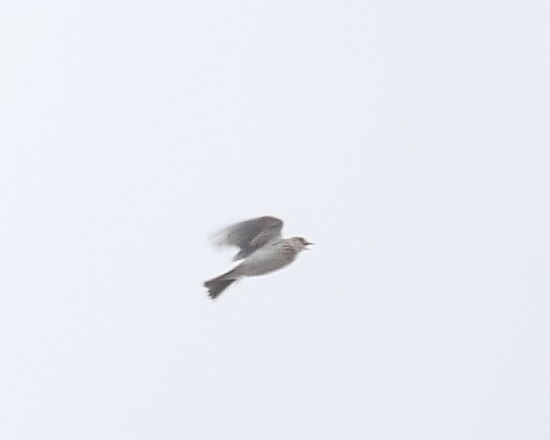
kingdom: Animalia
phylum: Chordata
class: Aves
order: Passeriformes
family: Alaudidae
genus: Alauda
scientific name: Alauda arvensis
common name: Eurasian skylark
